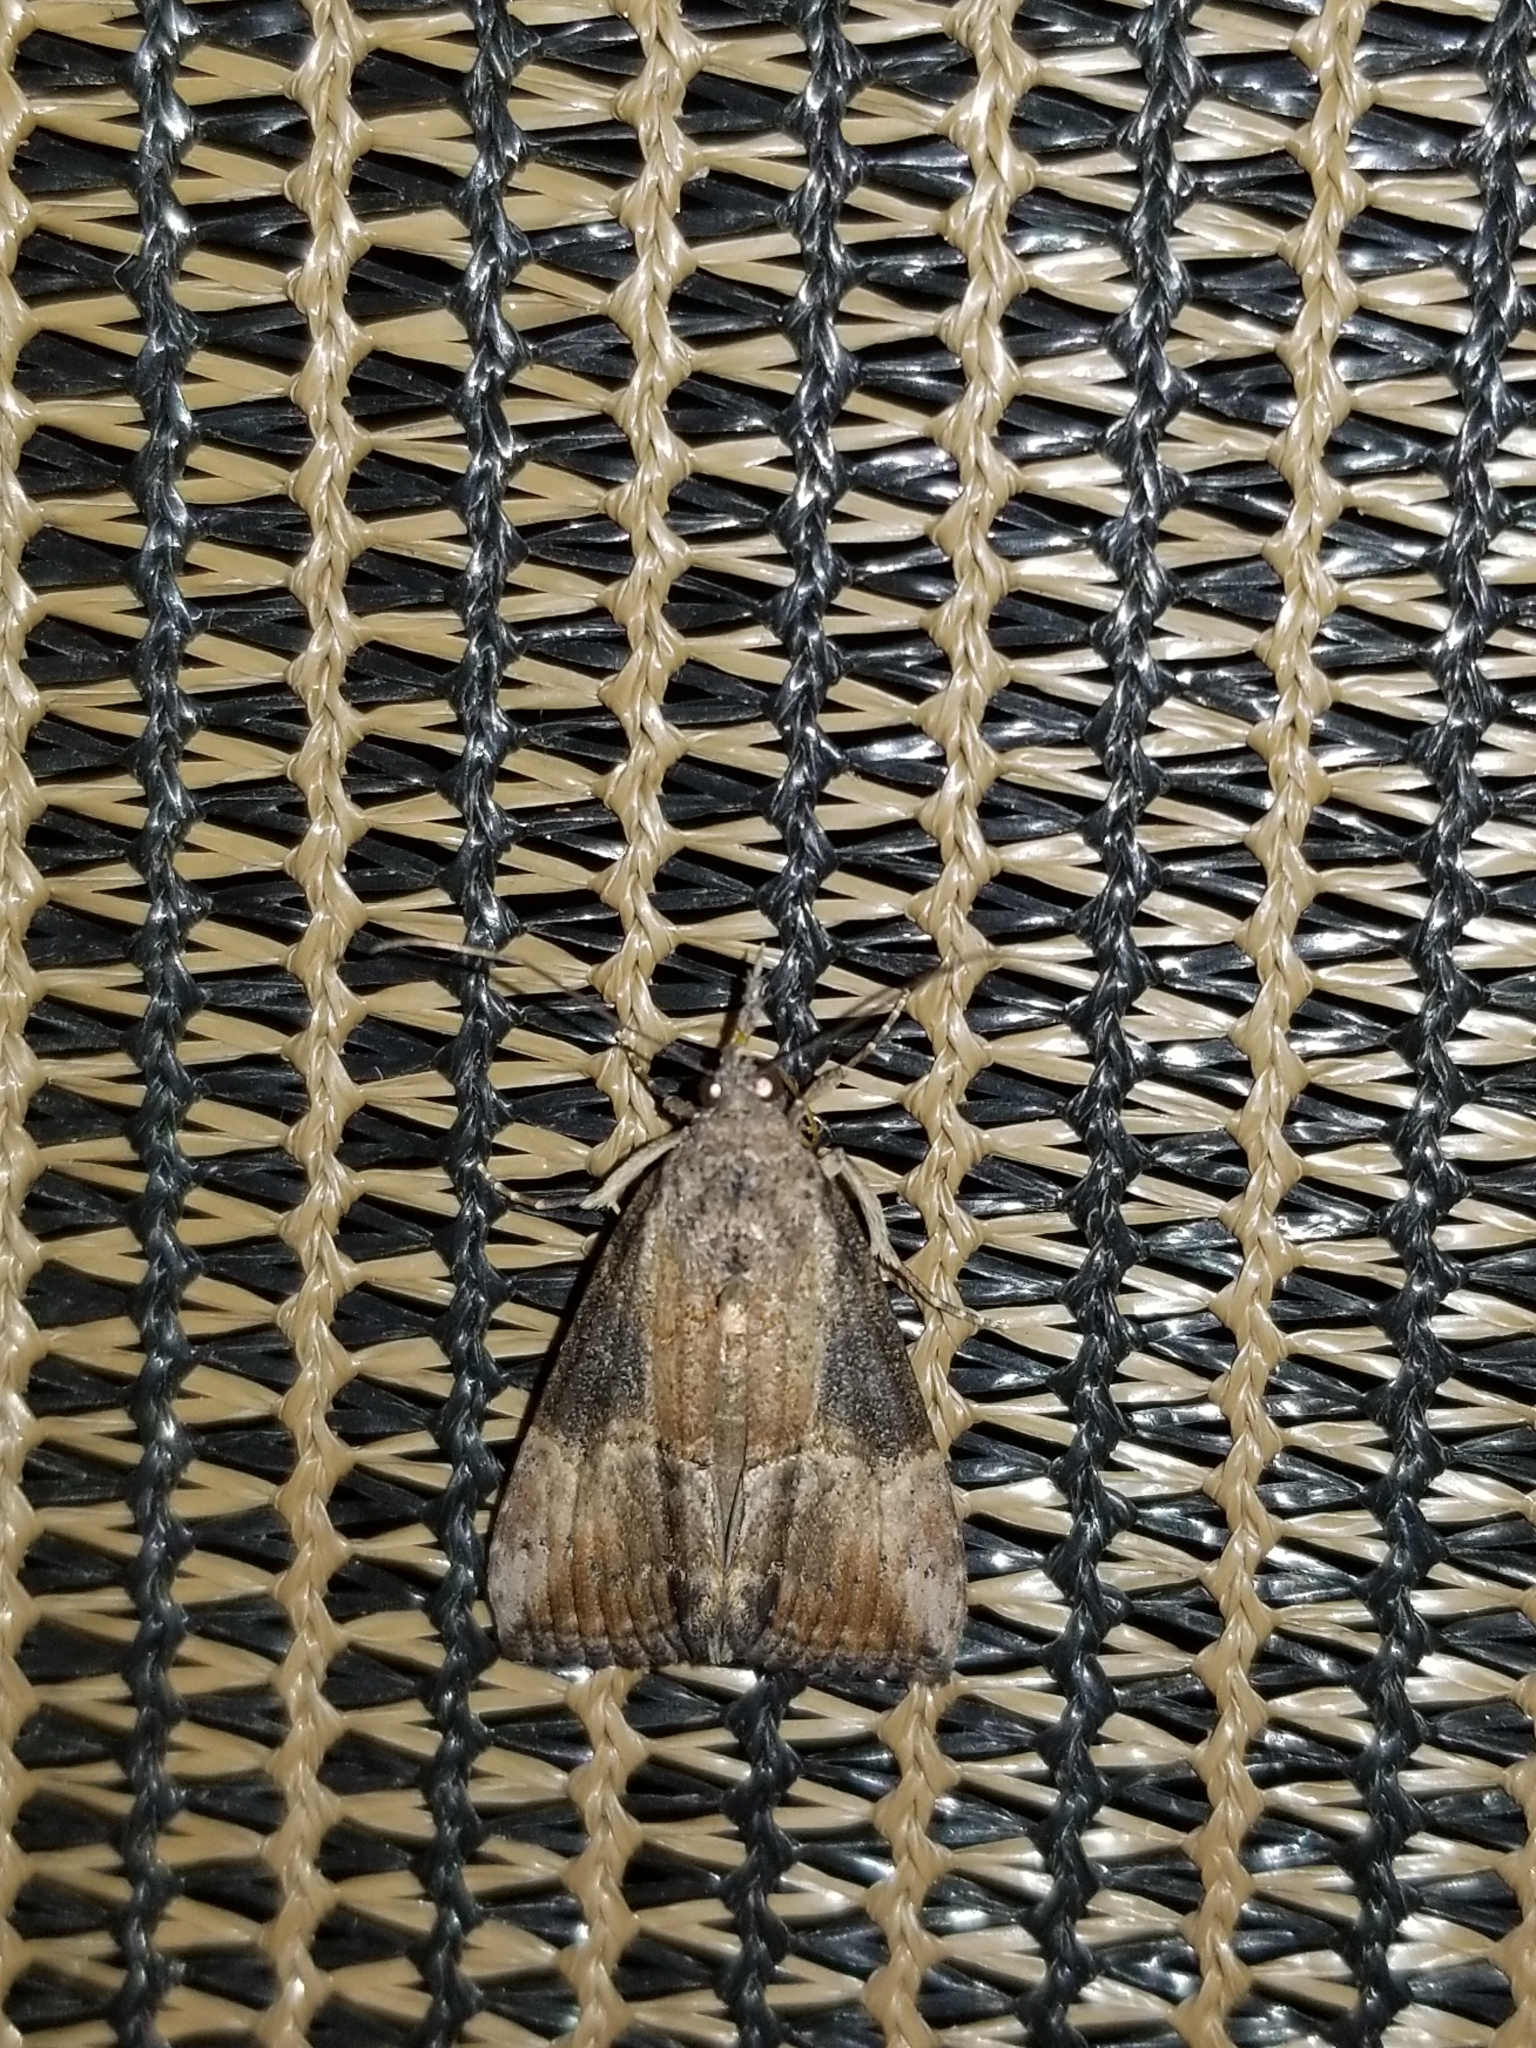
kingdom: Animalia
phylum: Arthropoda
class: Insecta
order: Lepidoptera
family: Erebidae
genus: Hypena
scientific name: Hypena scabra
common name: Green cloverworm
